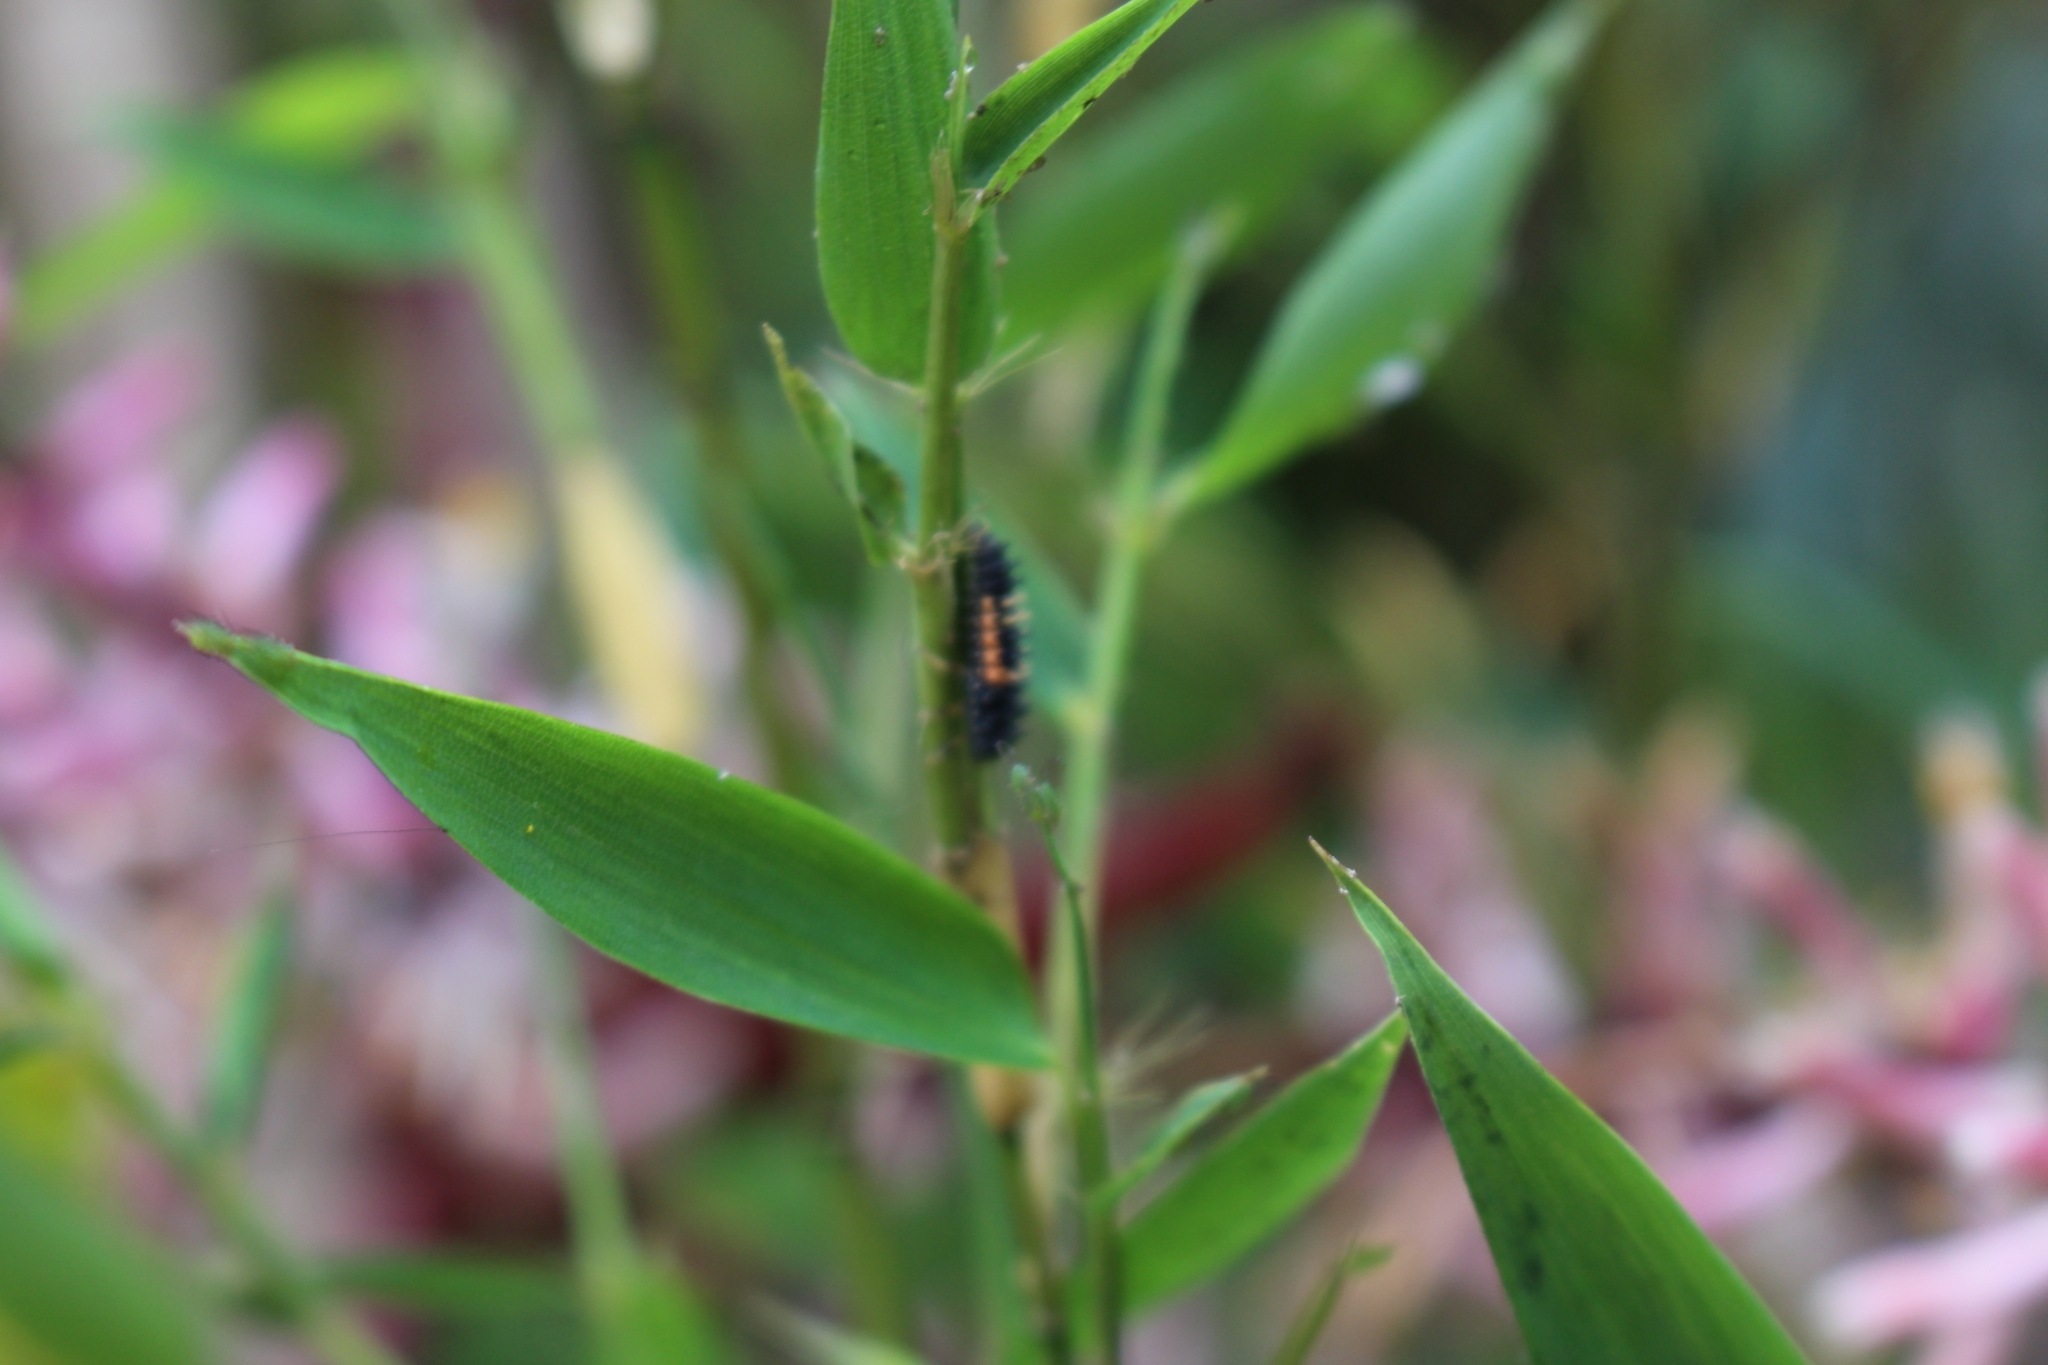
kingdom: Animalia
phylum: Arthropoda
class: Insecta
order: Coleoptera
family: Coccinellidae
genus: Harmonia
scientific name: Harmonia axyridis
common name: Harlequin ladybird
